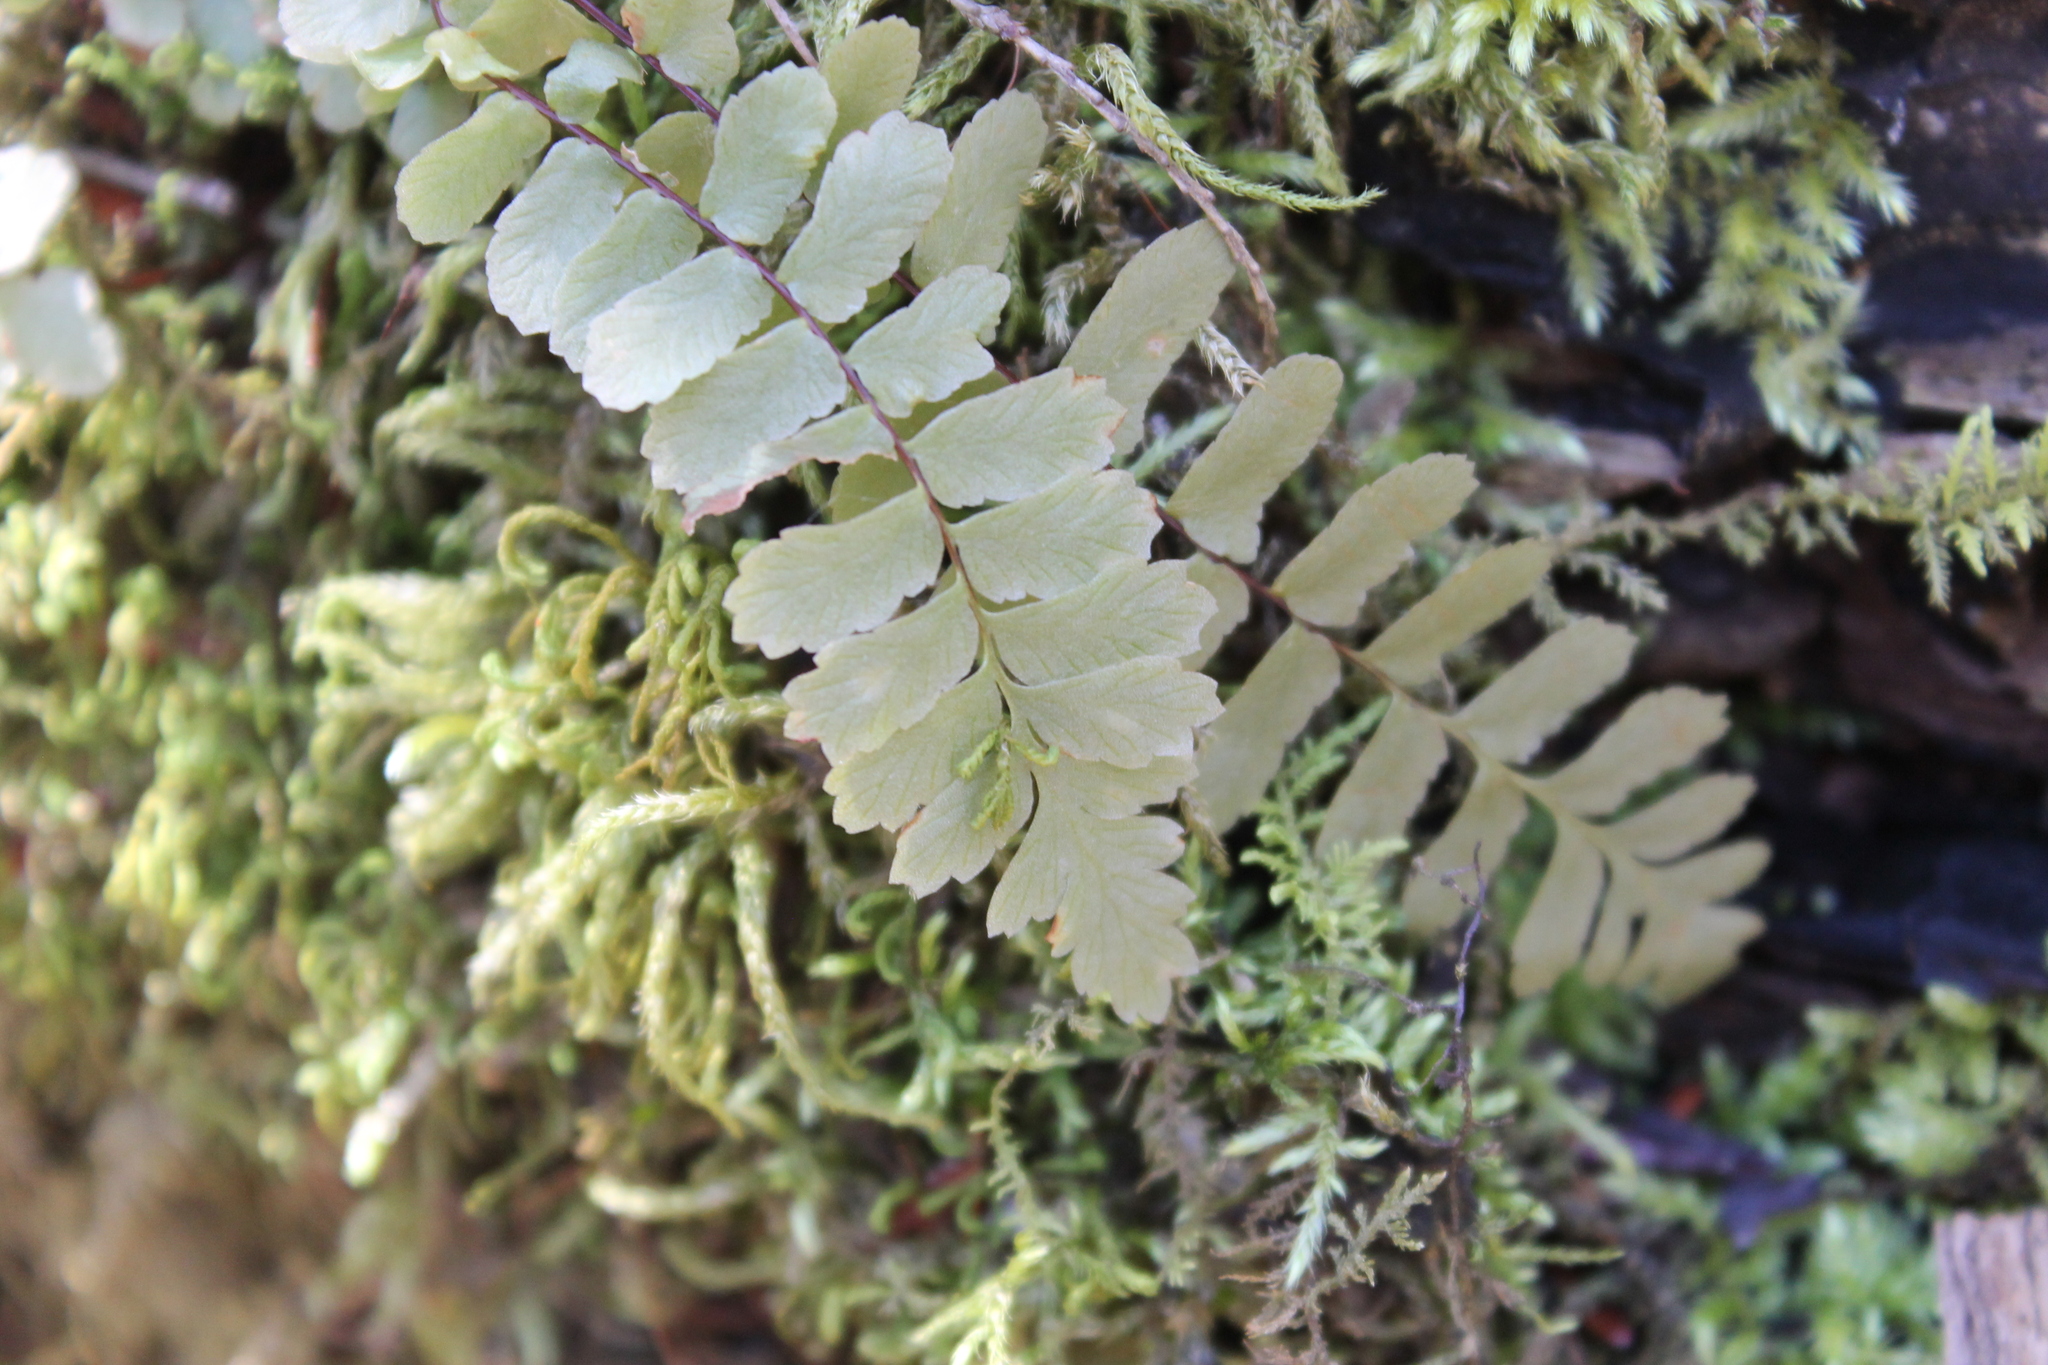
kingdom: Plantae
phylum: Tracheophyta
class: Polypodiopsida
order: Polypodiales
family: Aspleniaceae
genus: Asplenium
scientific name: Asplenium platyneuron
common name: Ebony spleenwort
